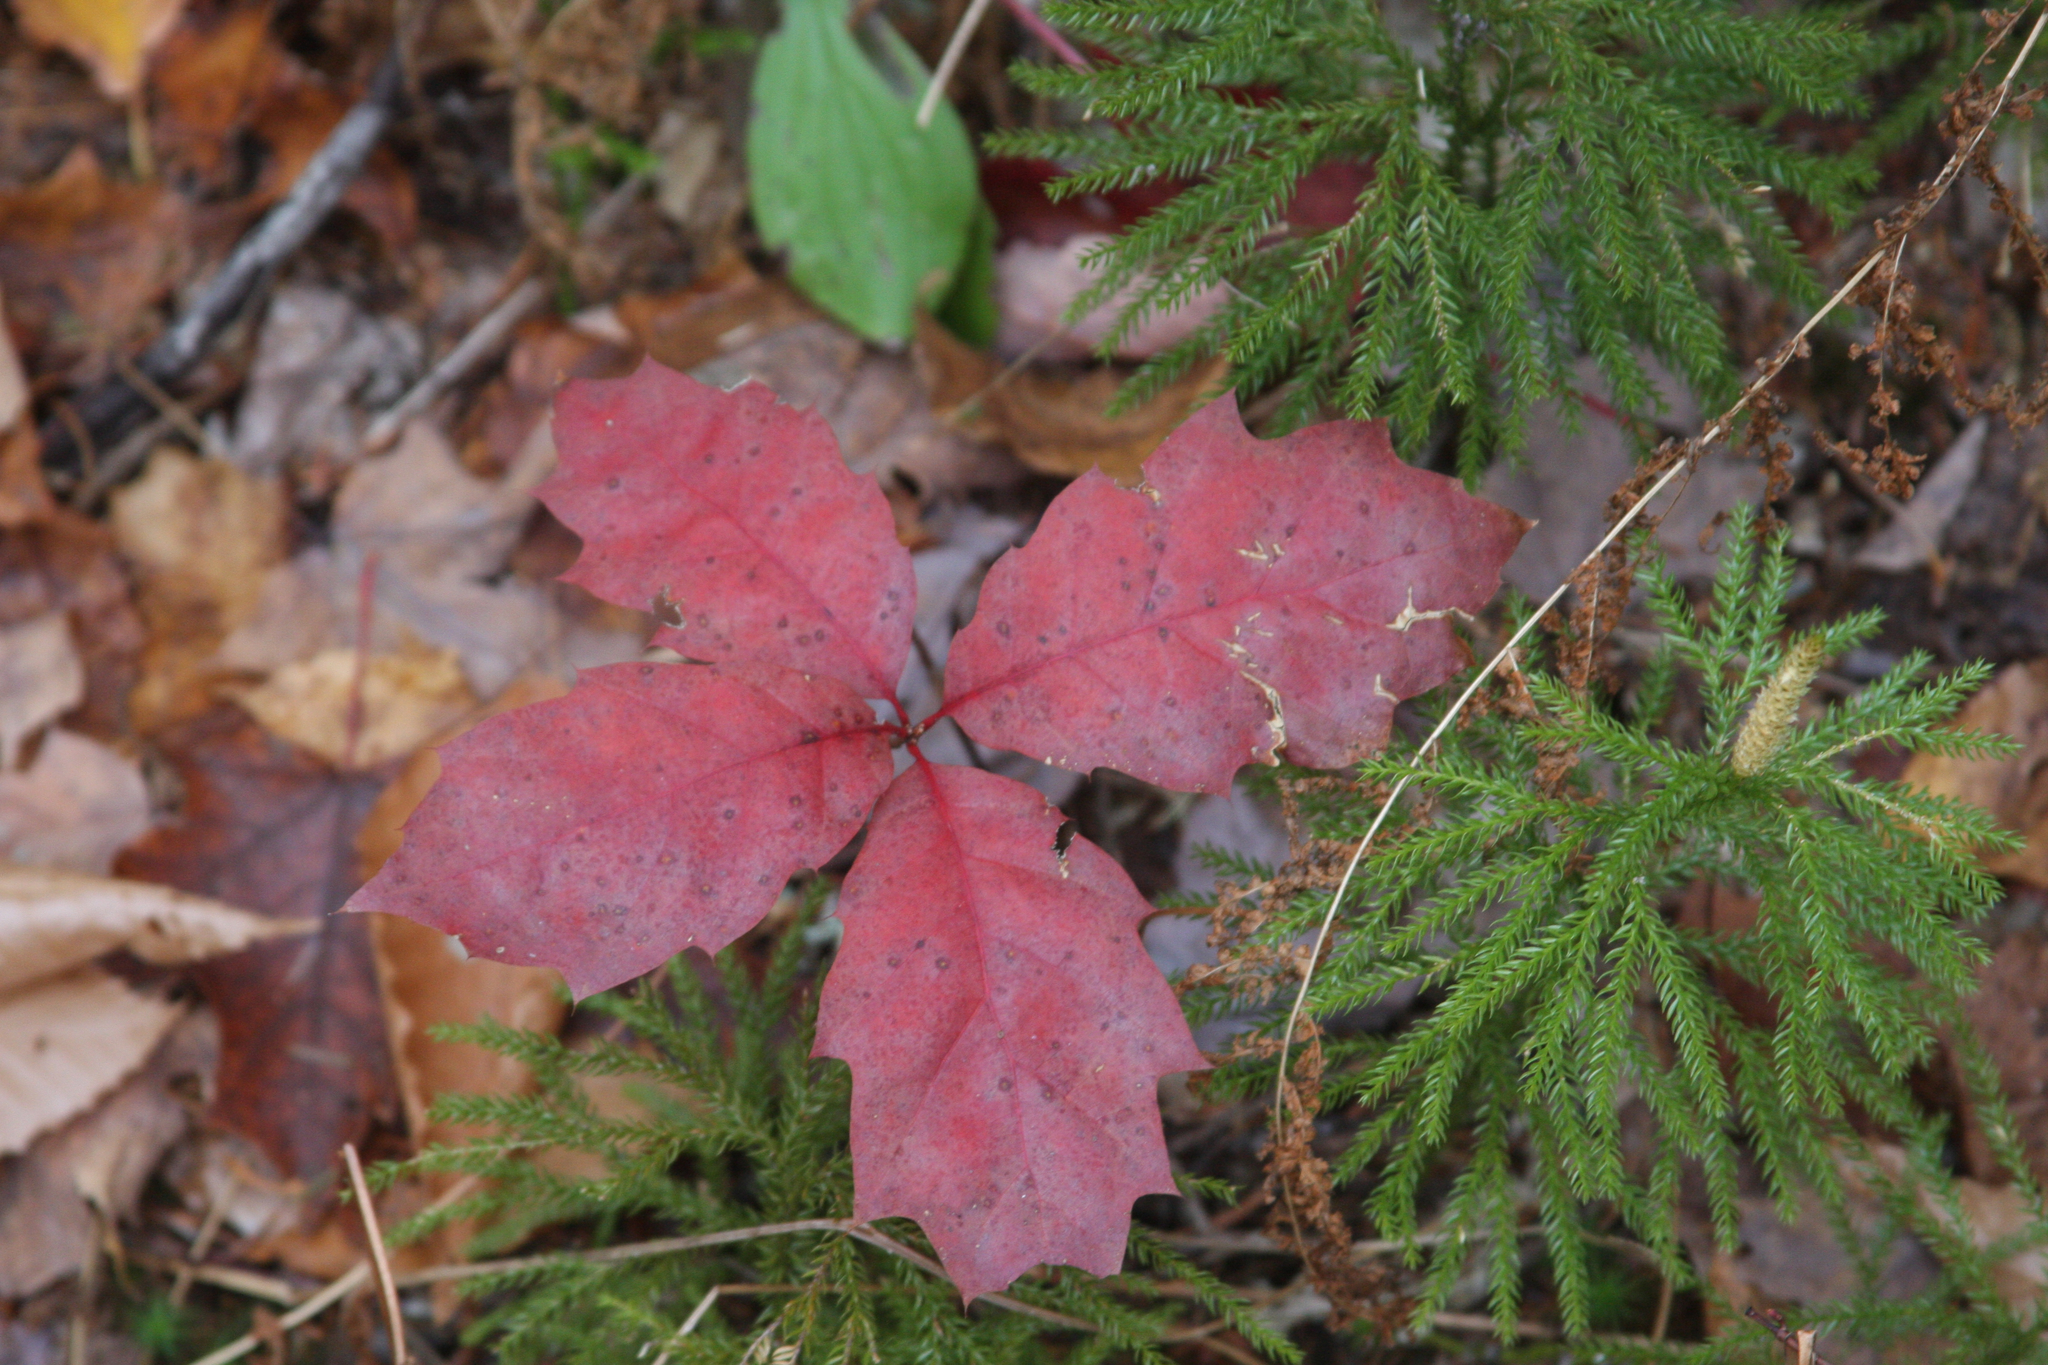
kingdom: Plantae
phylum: Tracheophyta
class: Magnoliopsida
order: Fagales
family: Fagaceae
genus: Quercus
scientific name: Quercus rubra
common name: Red oak
